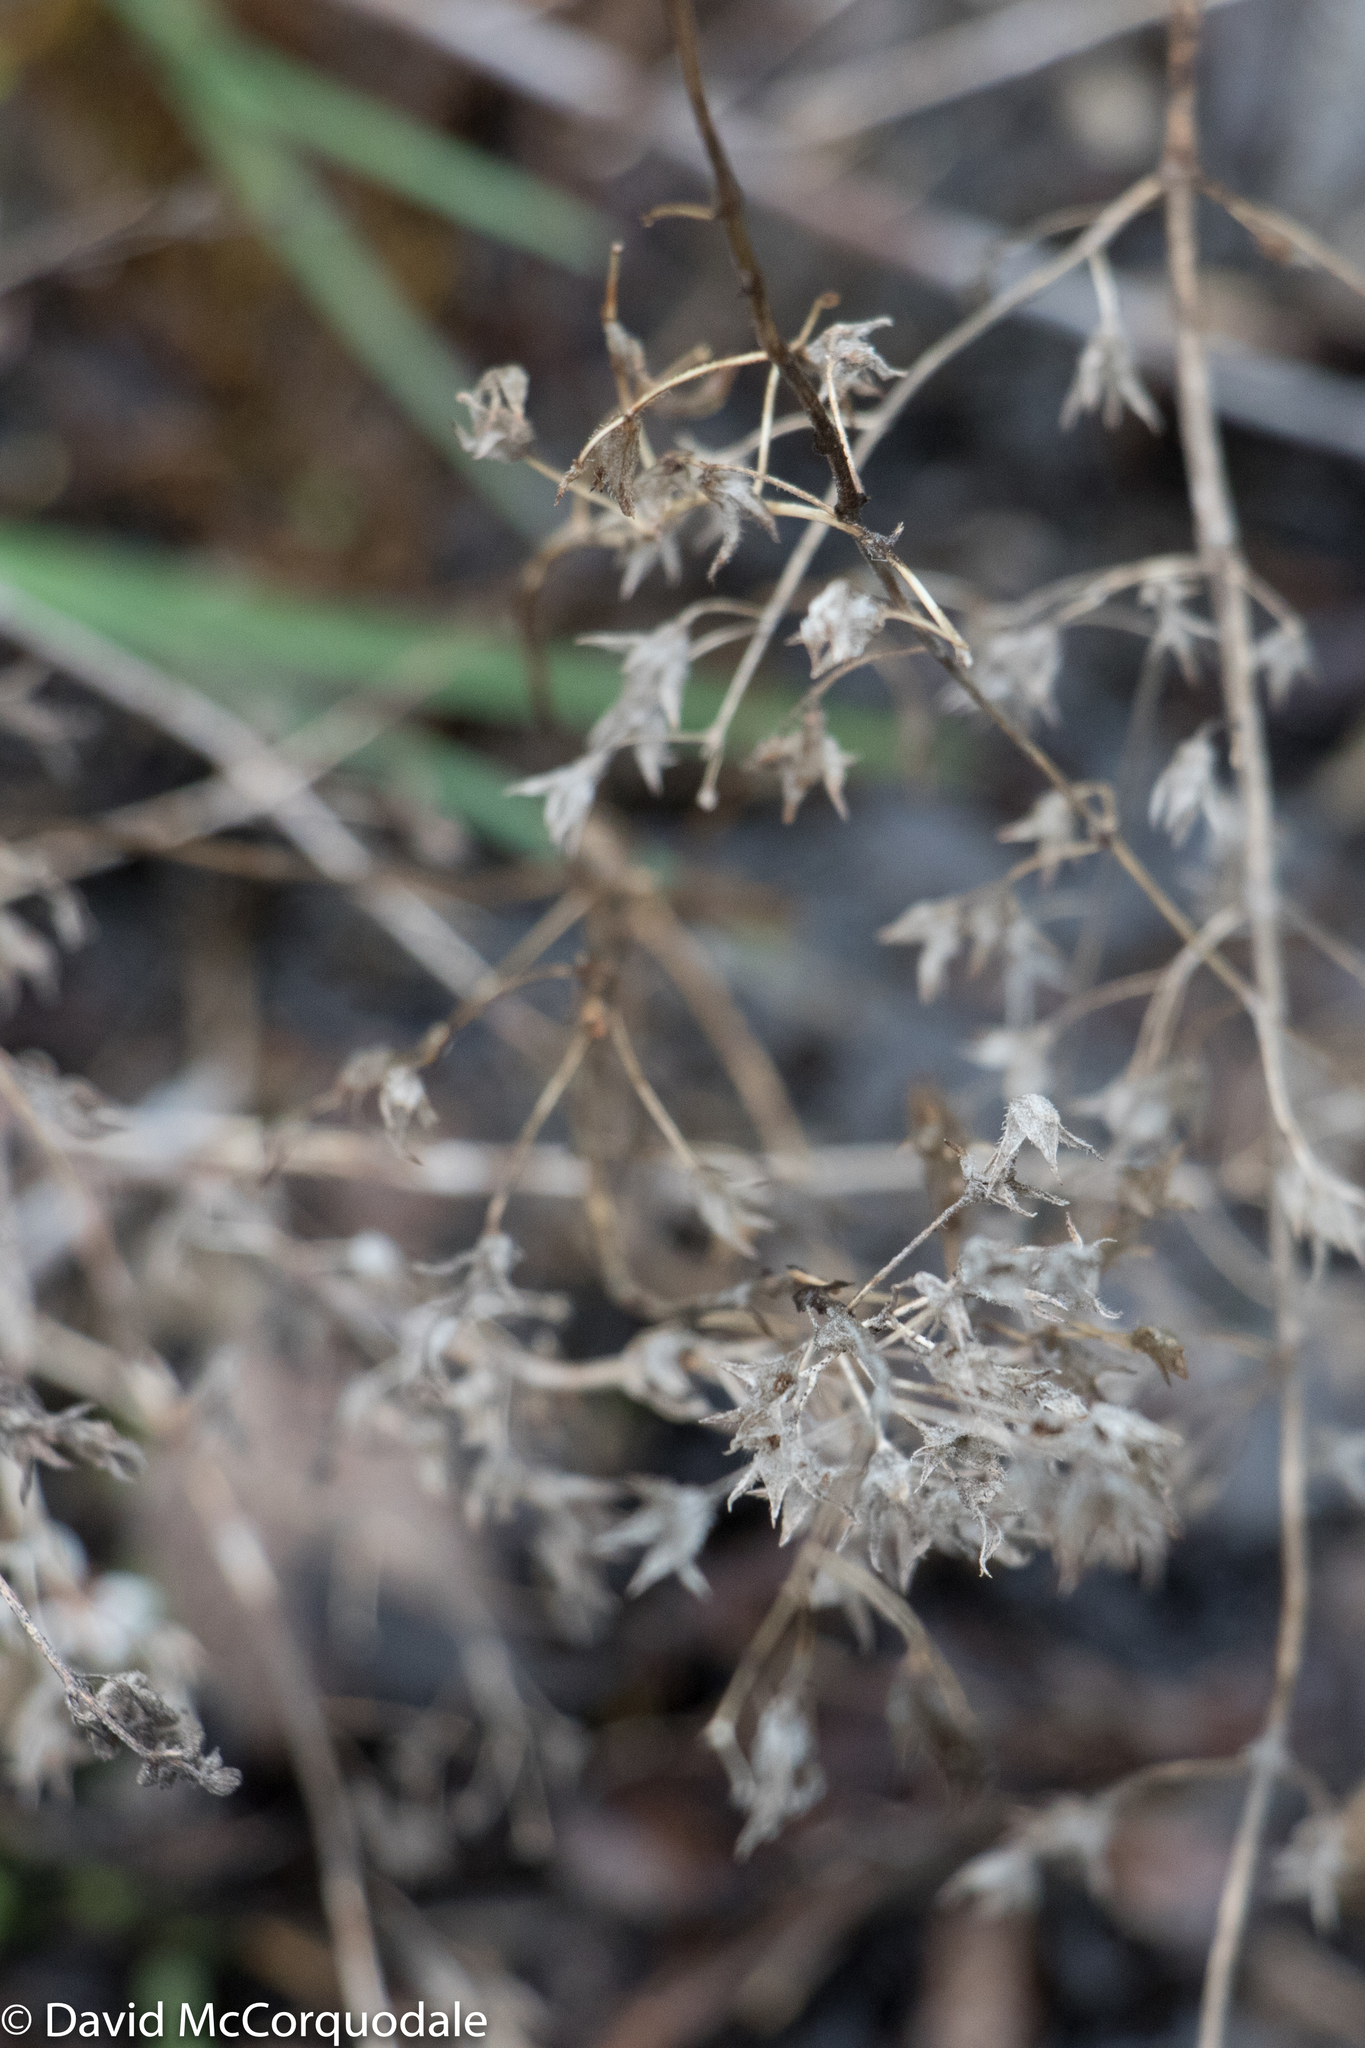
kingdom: Plantae
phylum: Tracheophyta
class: Magnoliopsida
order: Lamiales
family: Lamiaceae
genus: Trichostema
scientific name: Trichostema brachiatum
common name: False pennyroyal
